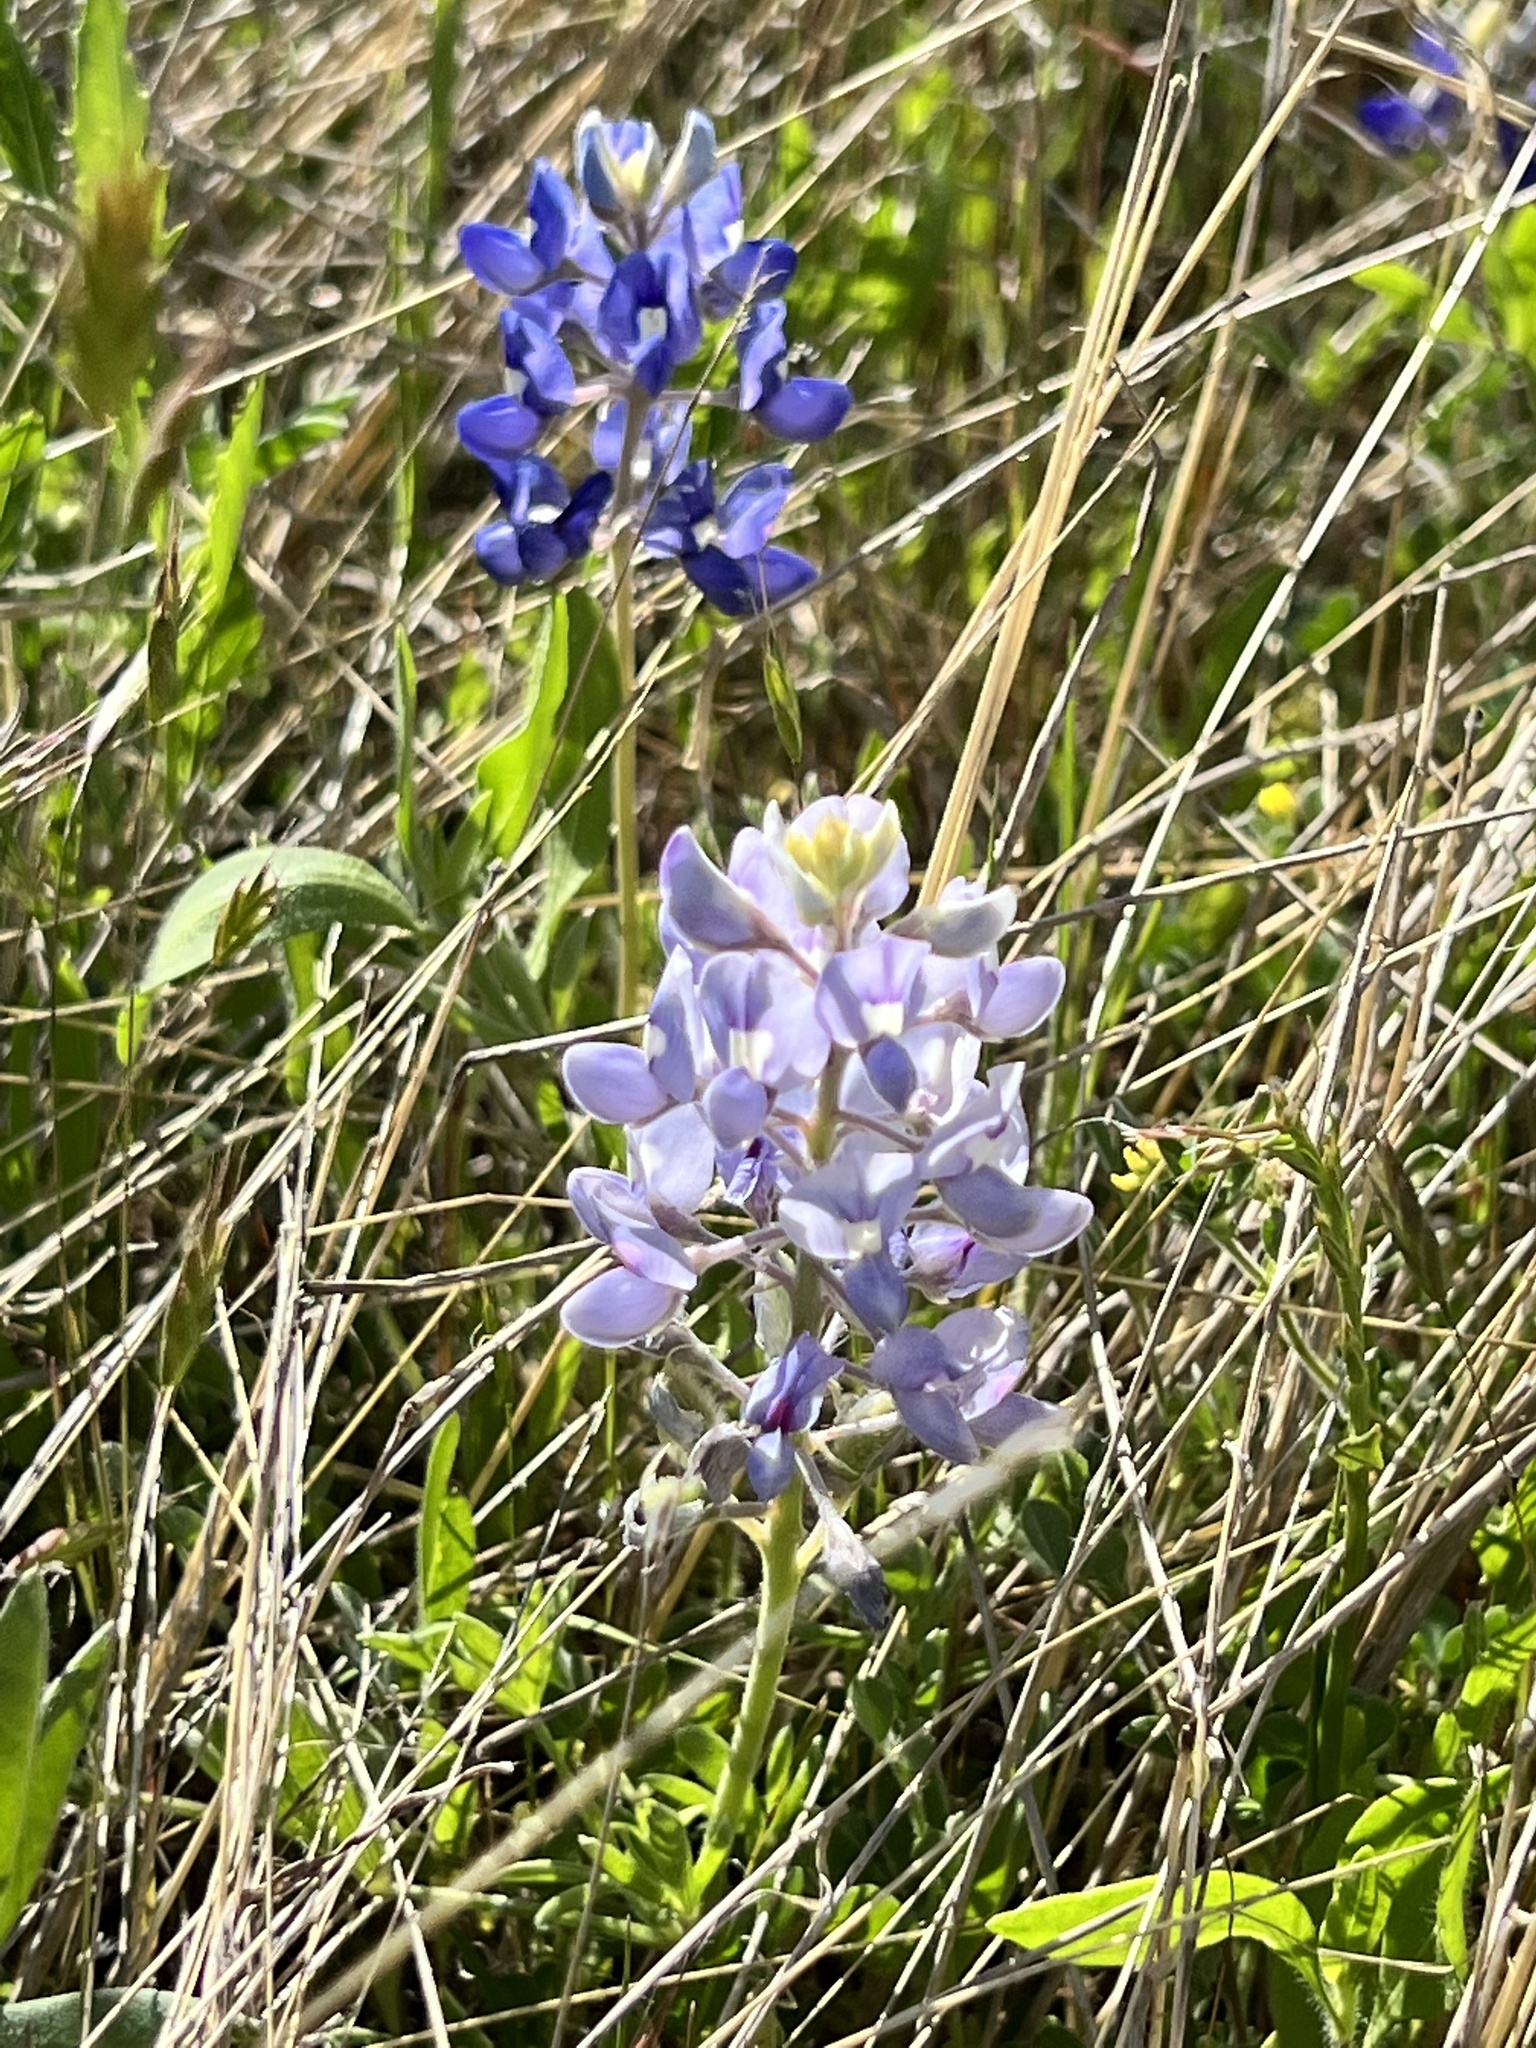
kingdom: Plantae
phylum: Tracheophyta
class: Magnoliopsida
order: Fabales
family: Fabaceae
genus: Lupinus
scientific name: Lupinus texensis
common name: Texas bluebonnet
